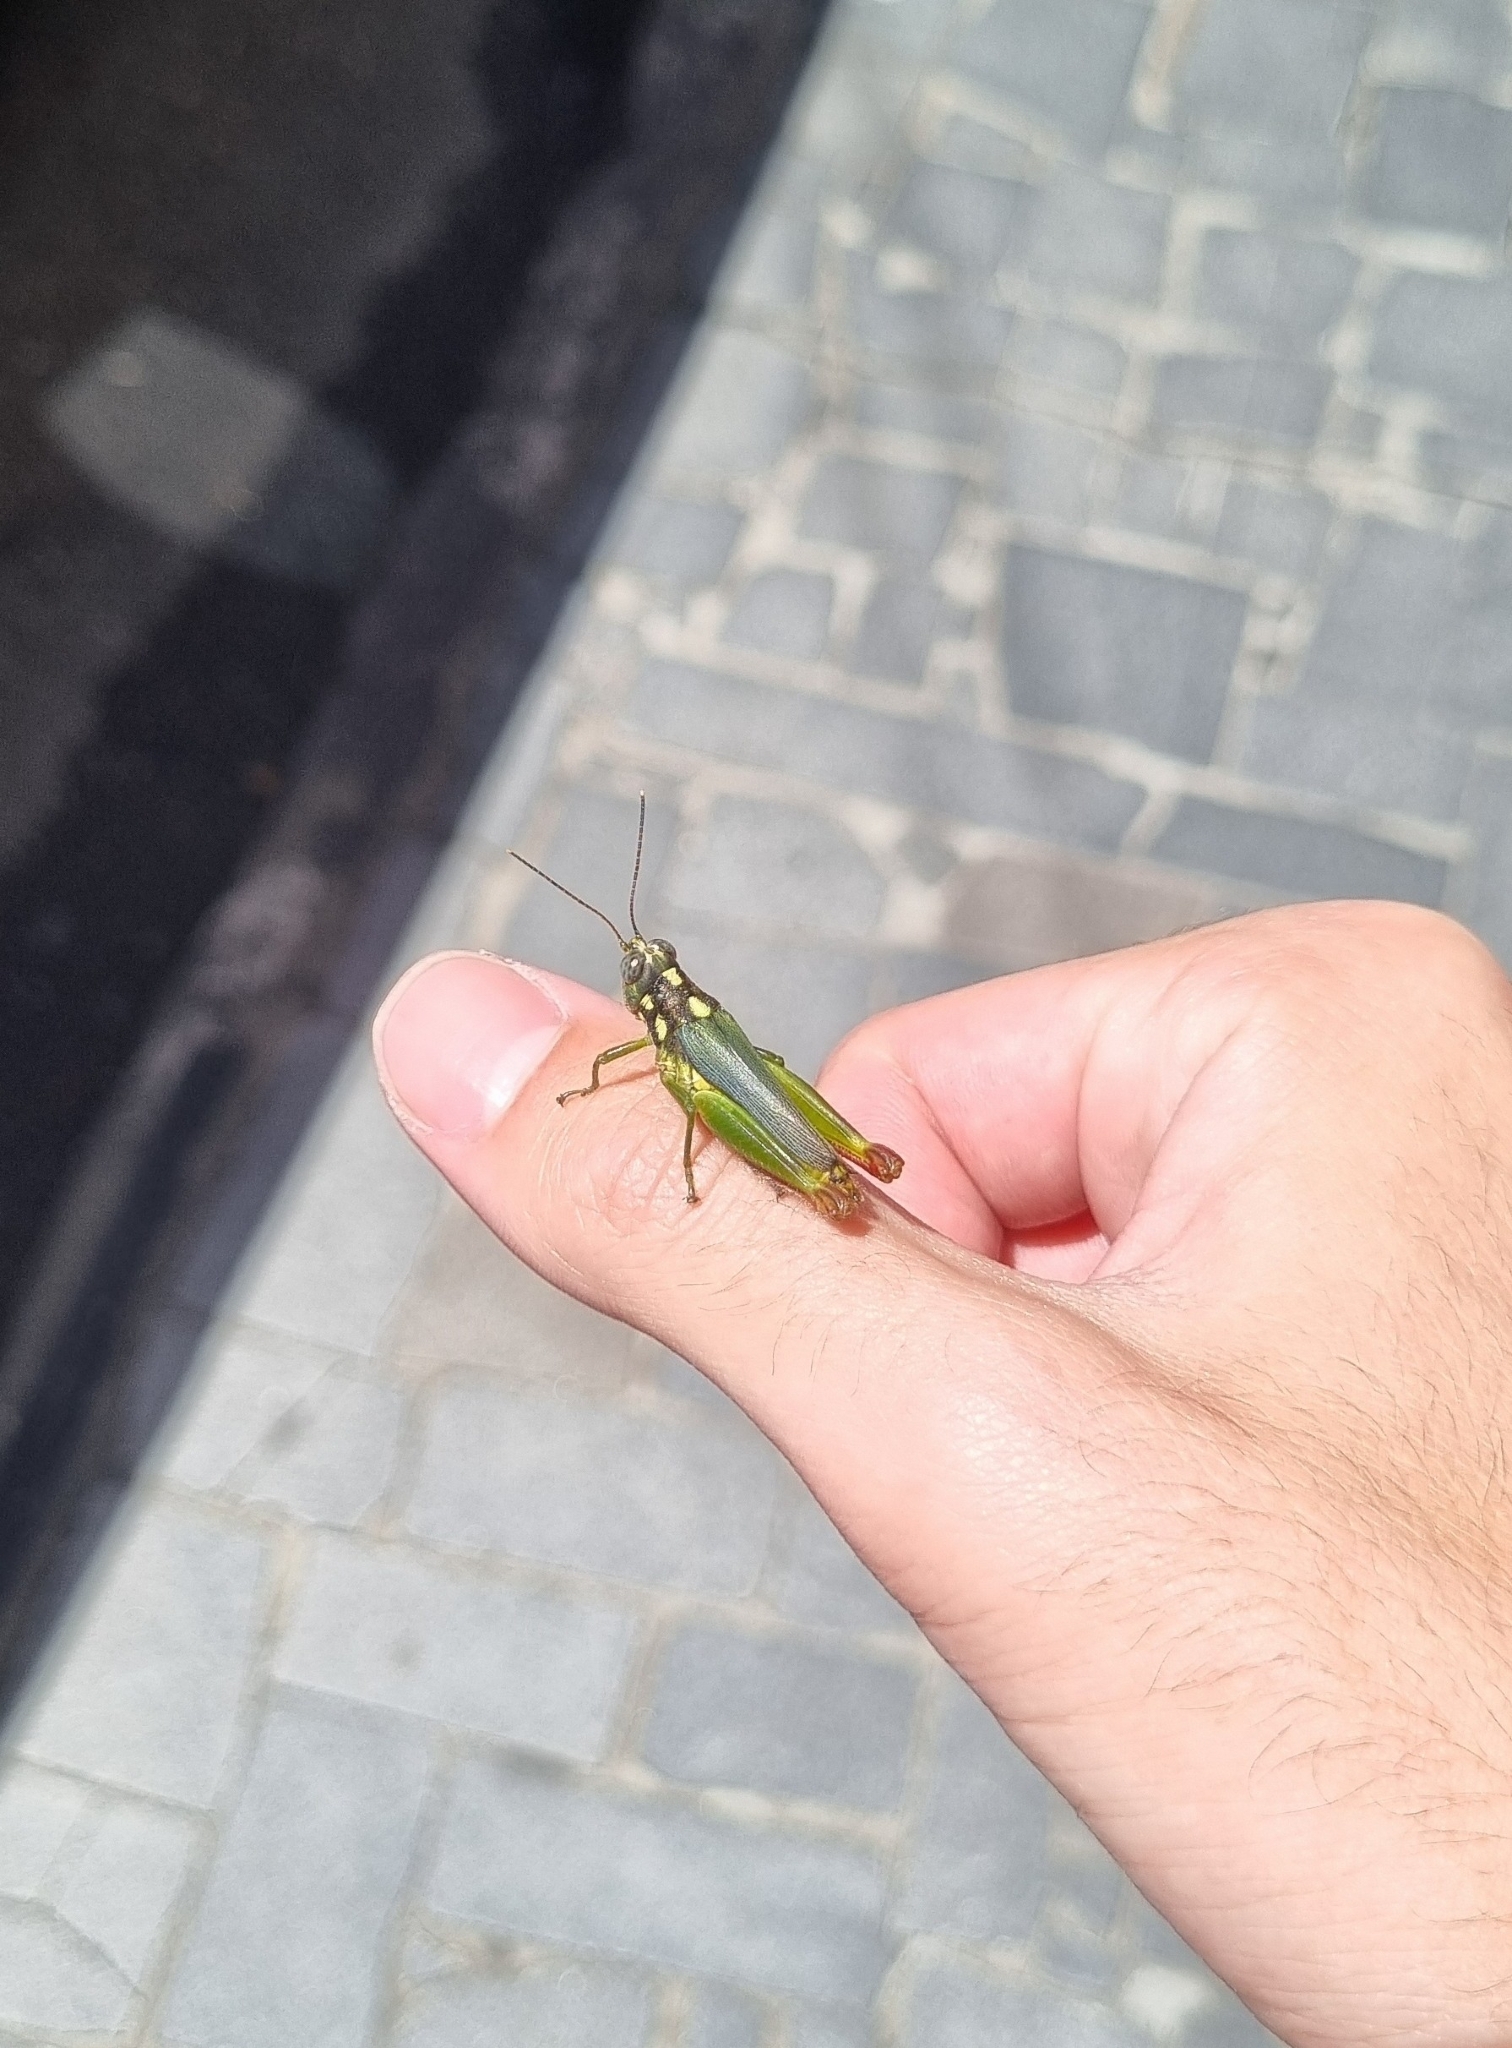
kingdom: Animalia
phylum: Arthropoda
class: Insecta
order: Orthoptera
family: Acrididae
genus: Poecilocloeus
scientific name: Poecilocloeus janeirensis
